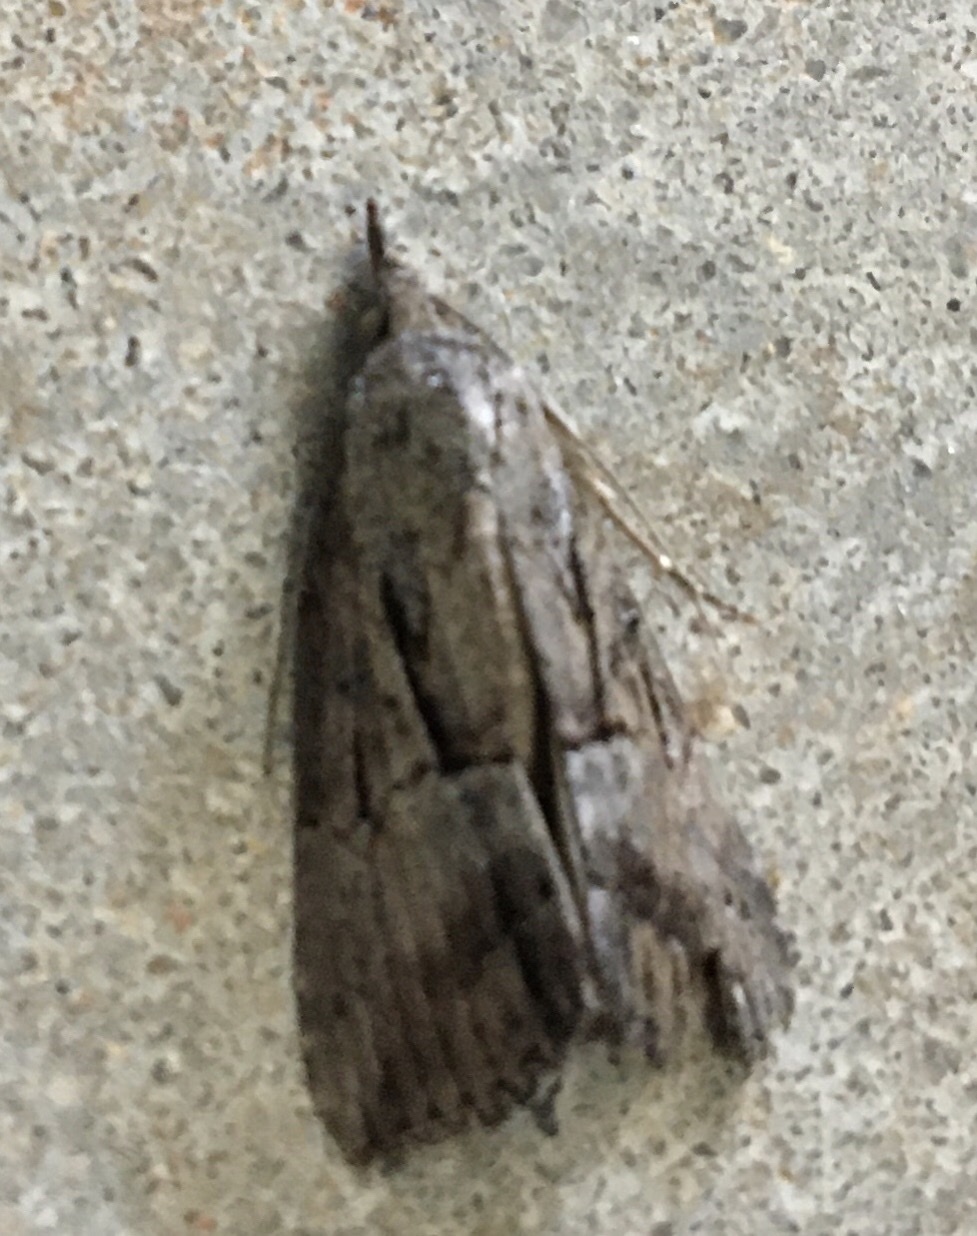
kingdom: Animalia
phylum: Arthropoda
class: Insecta
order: Lepidoptera
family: Erebidae
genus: Hypena
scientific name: Hypena scabra
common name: Green cloverworm
